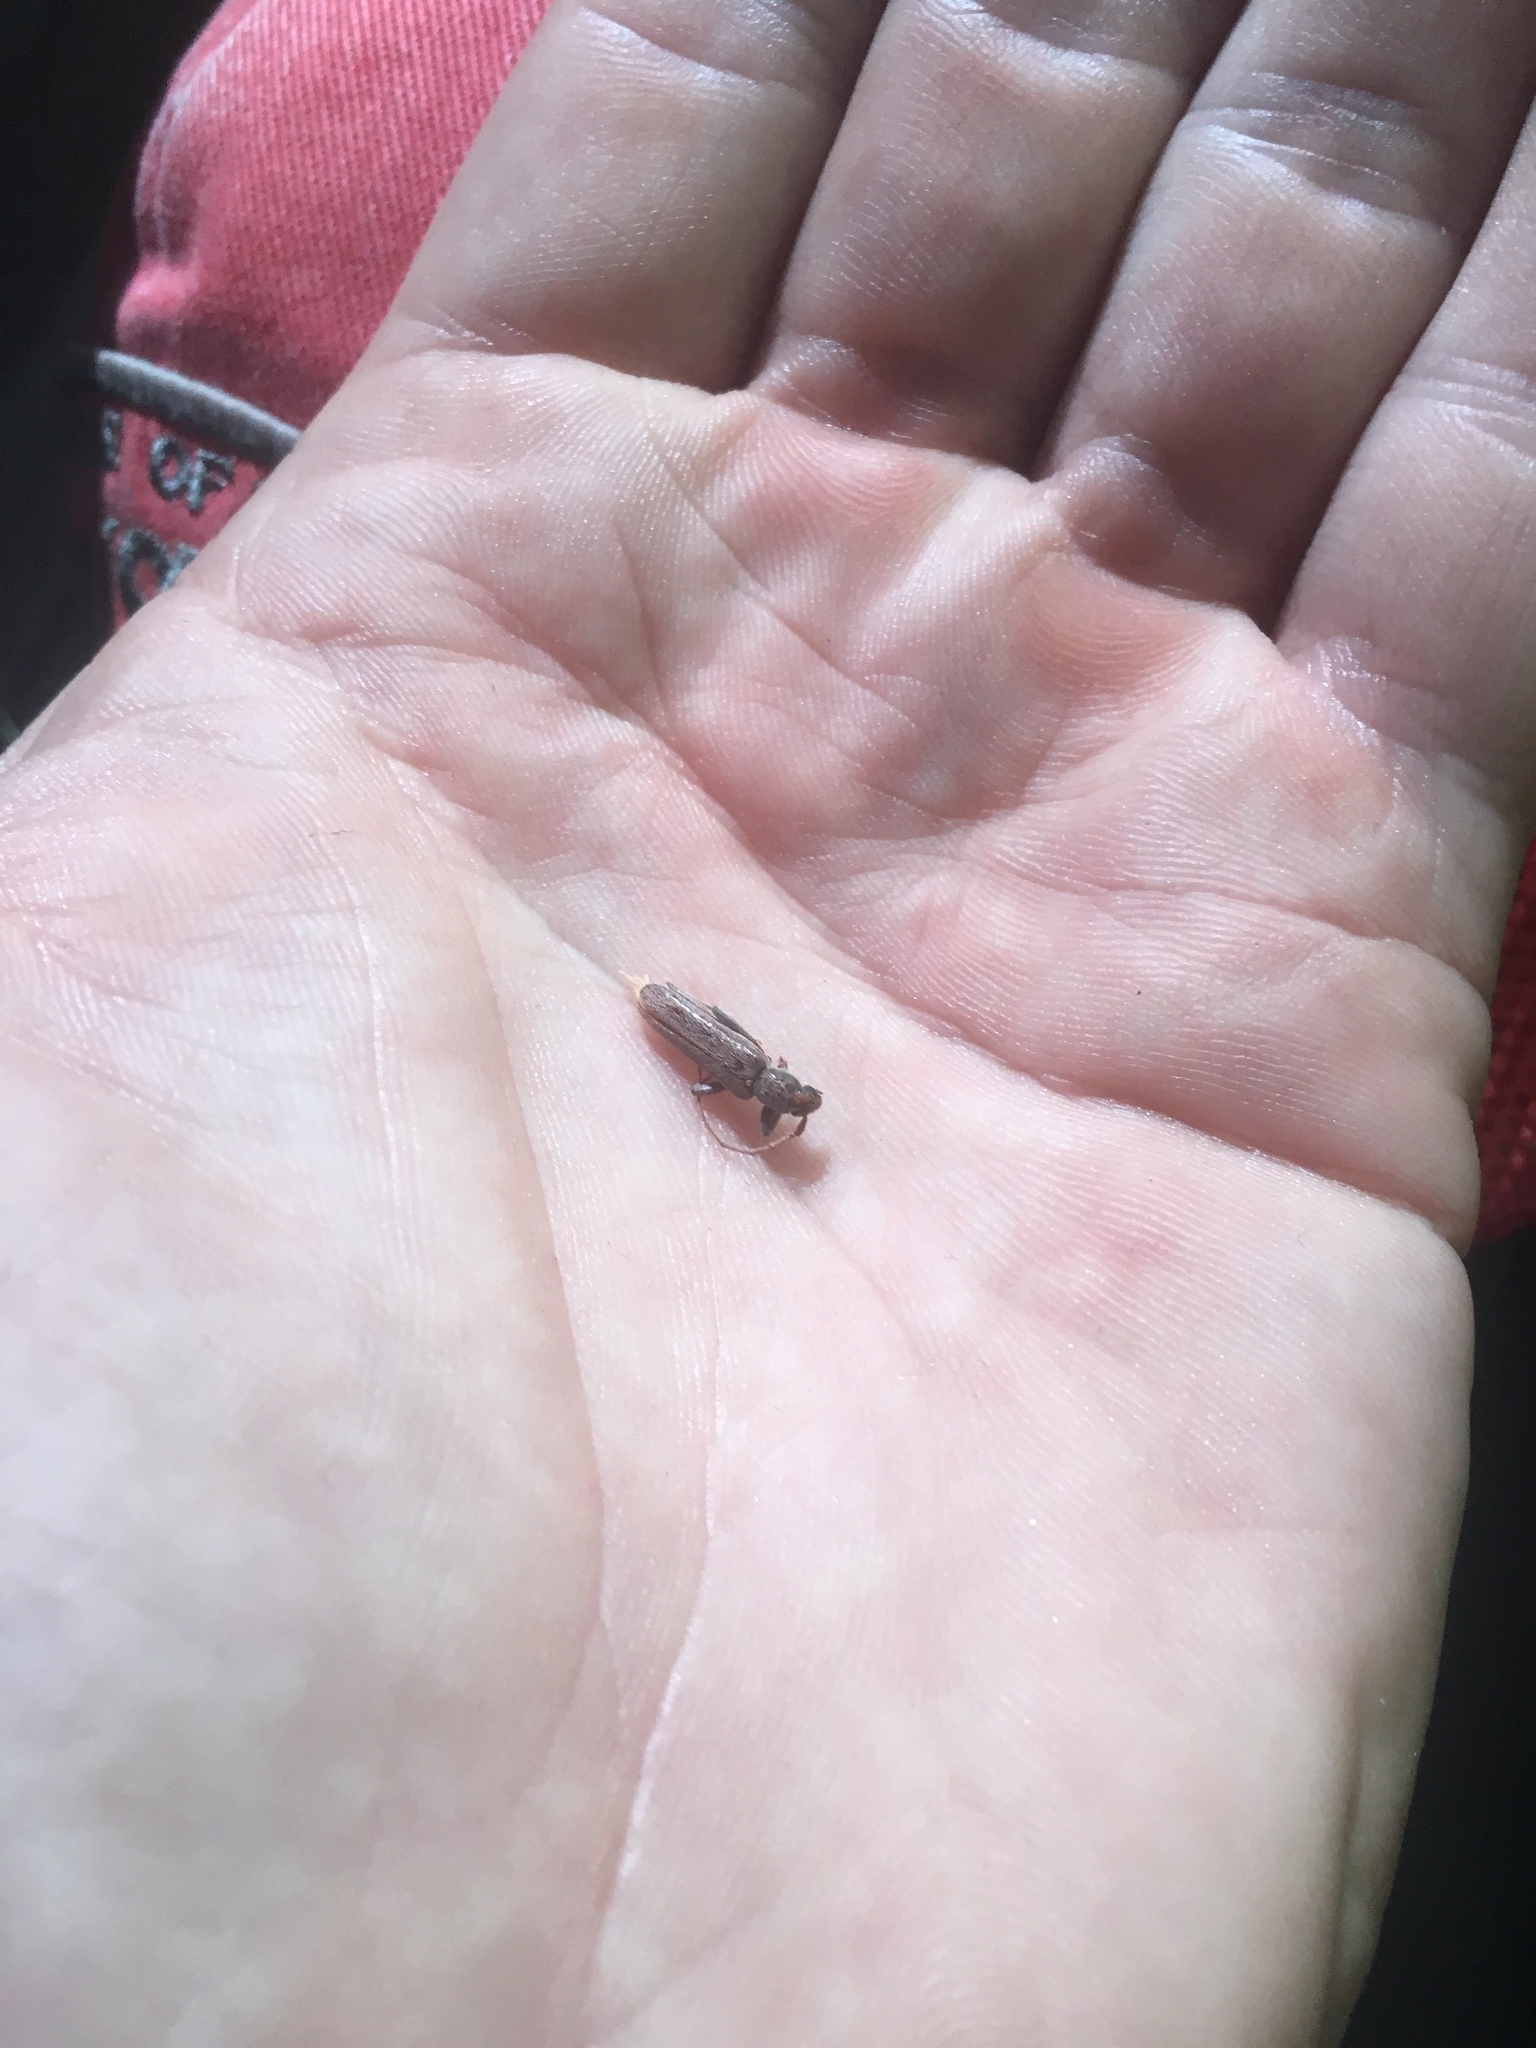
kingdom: Animalia
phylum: Arthropoda
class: Insecta
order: Coleoptera
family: Cerambycidae
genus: Oemona
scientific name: Oemona hirta
